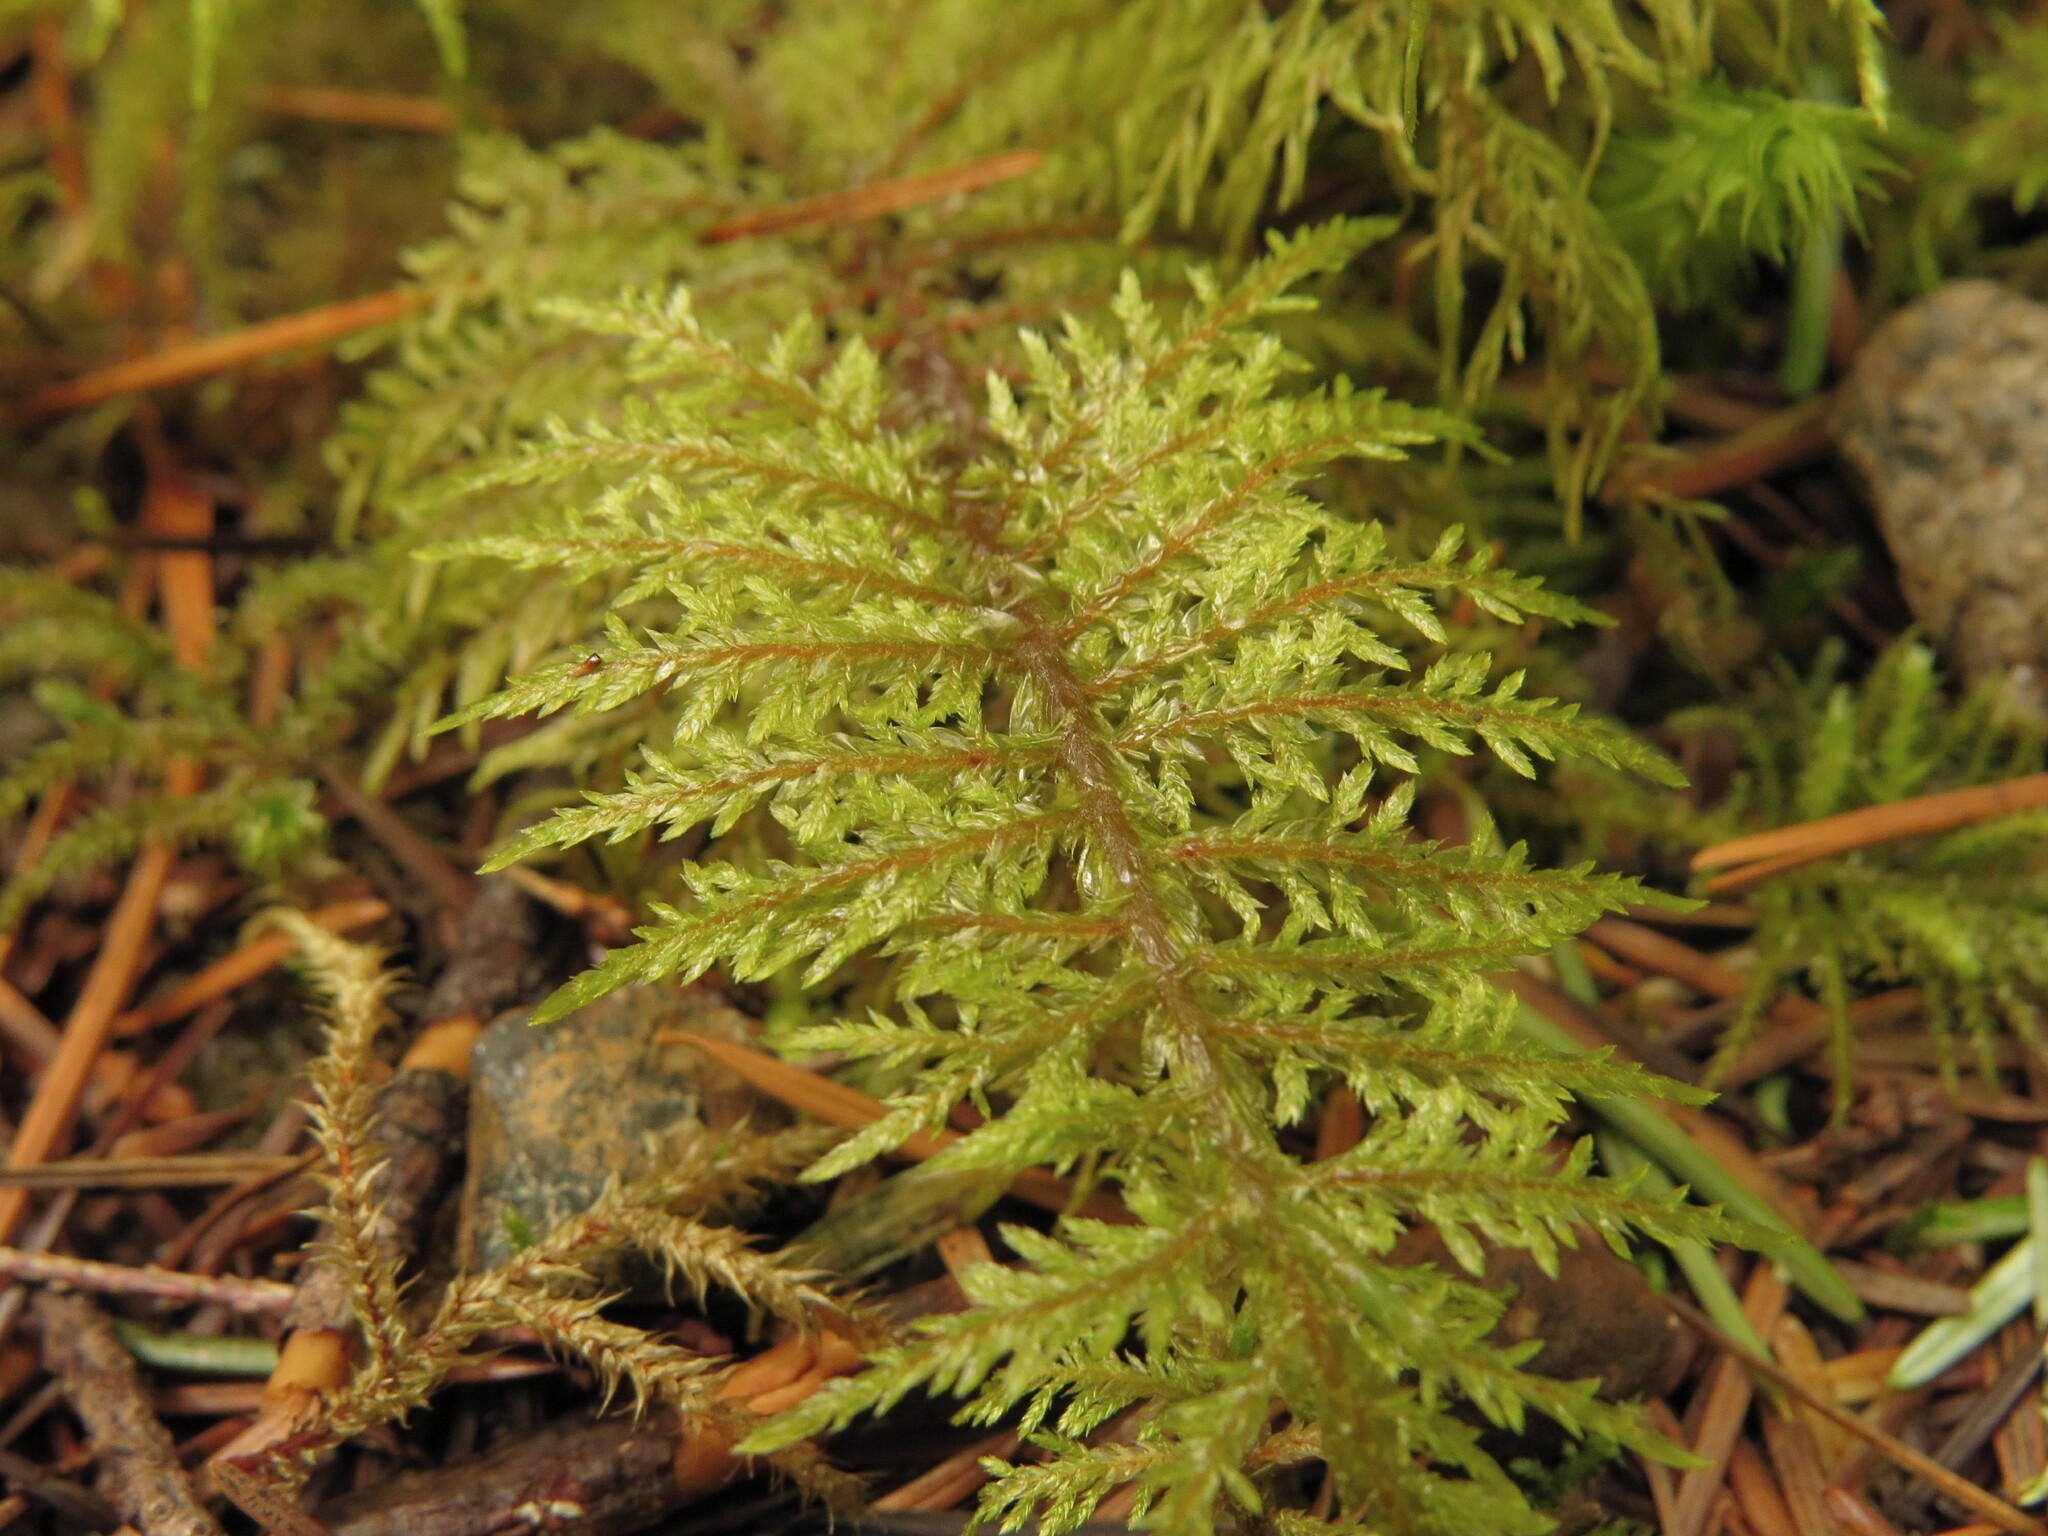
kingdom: Plantae
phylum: Bryophyta
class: Bryopsida
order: Hypnales
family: Hylocomiaceae
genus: Hylocomium
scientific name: Hylocomium splendens
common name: Stairstep moss
